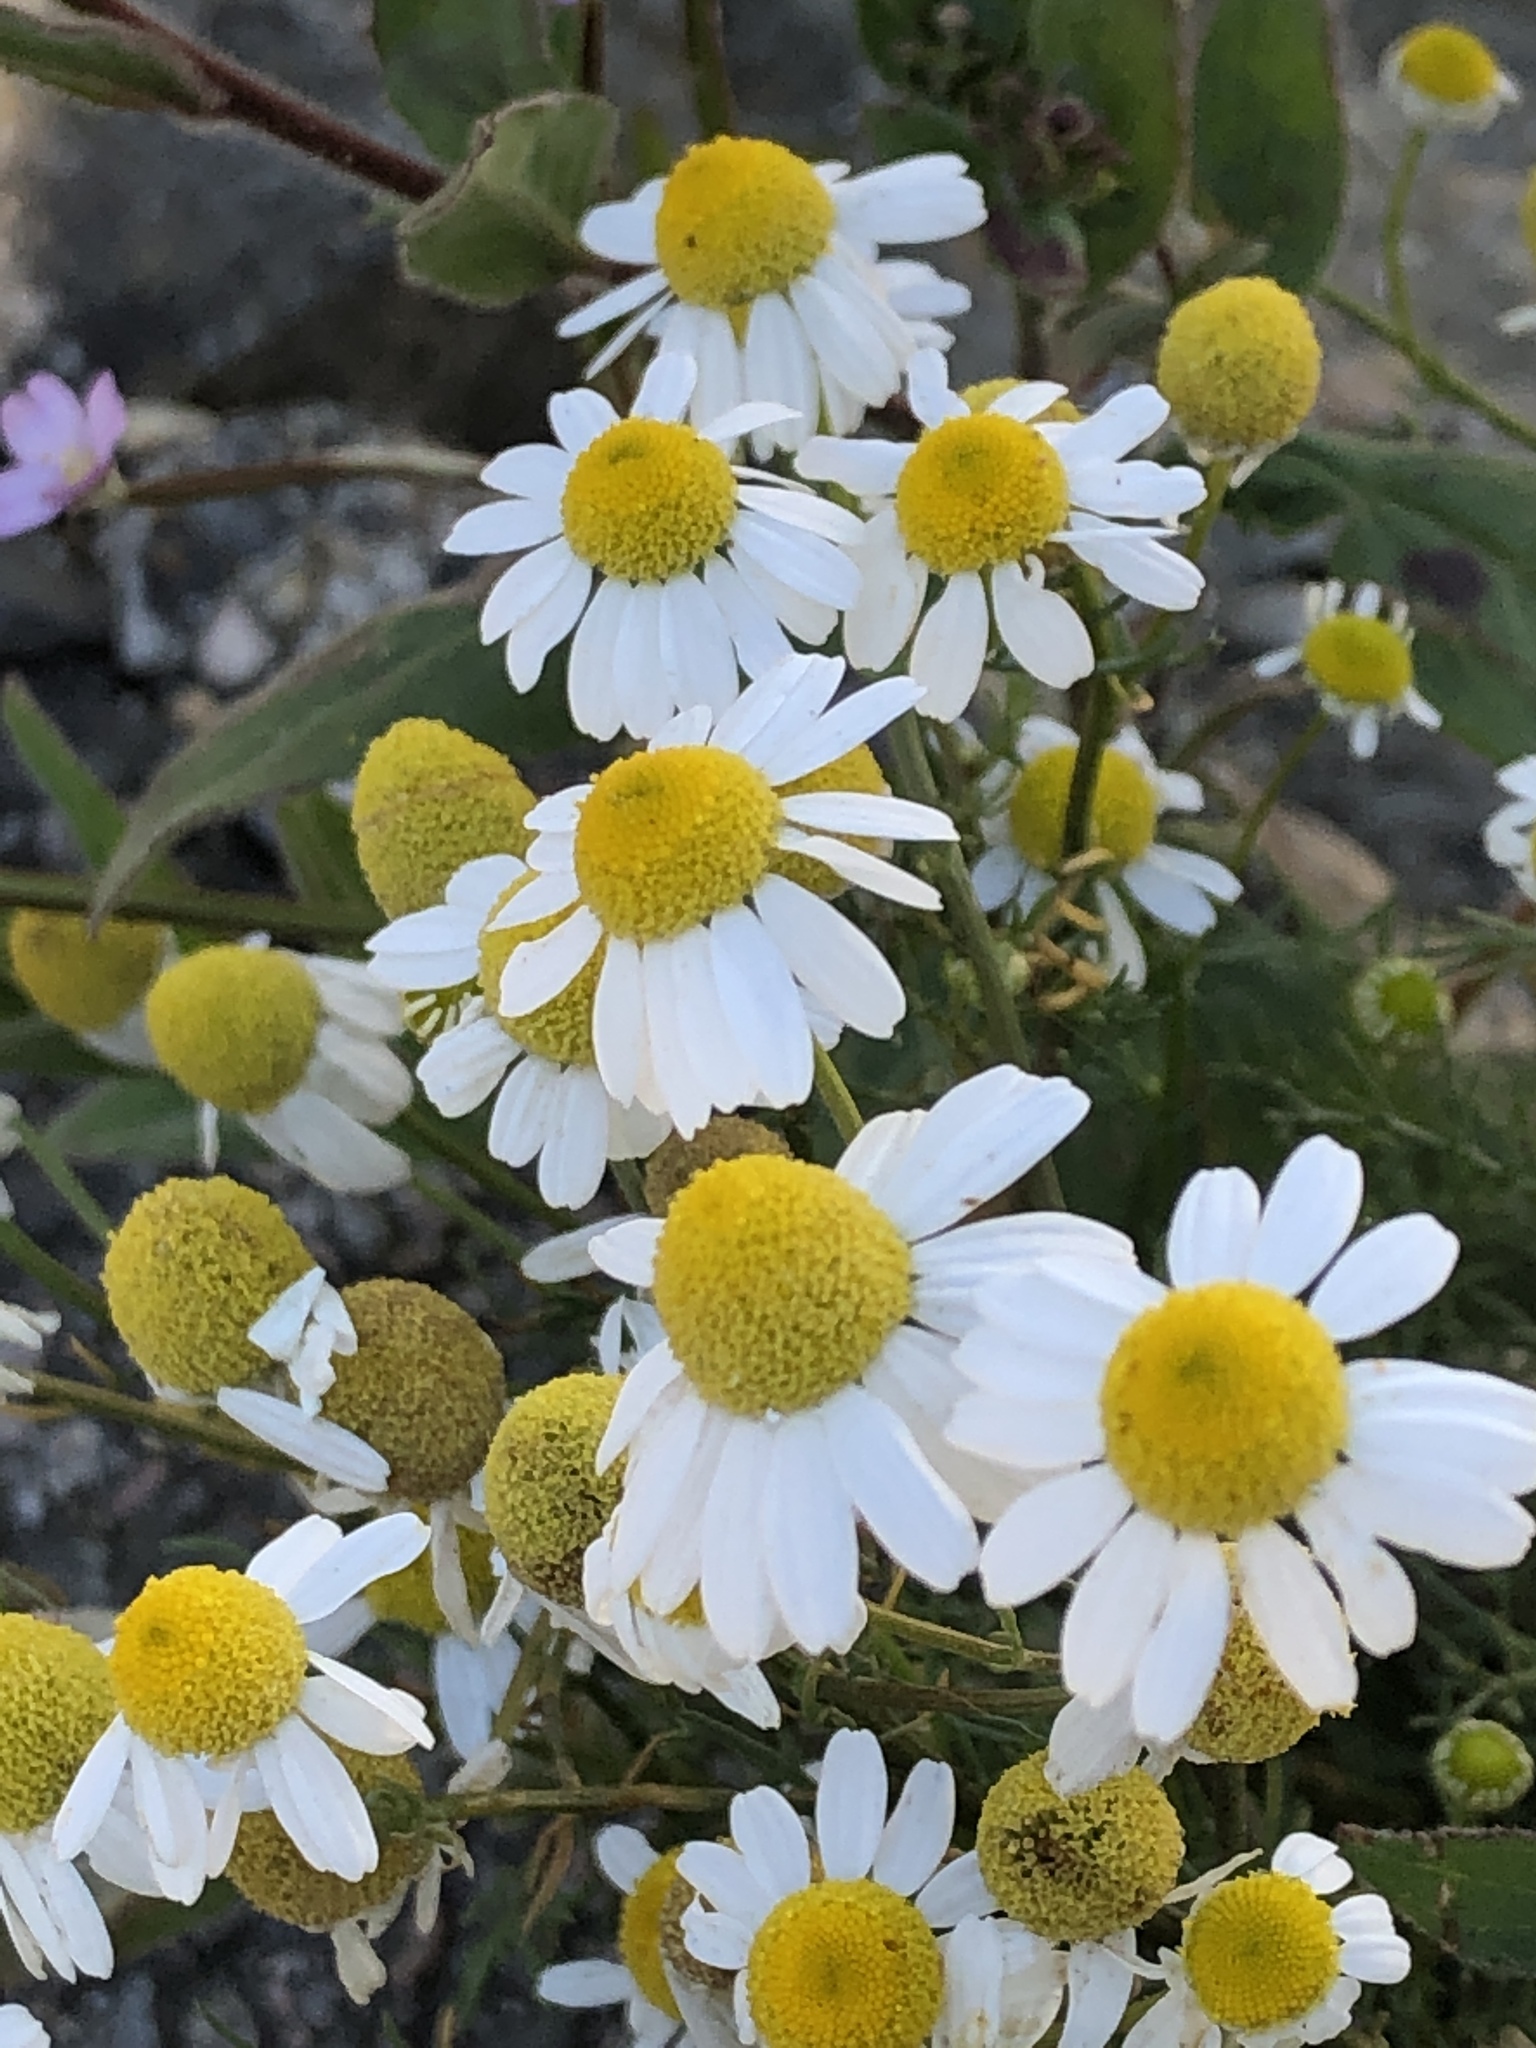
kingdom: Plantae
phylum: Tracheophyta
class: Magnoliopsida
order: Asterales
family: Asteraceae
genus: Matricaria
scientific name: Matricaria chamomilla
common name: Scented mayweed
